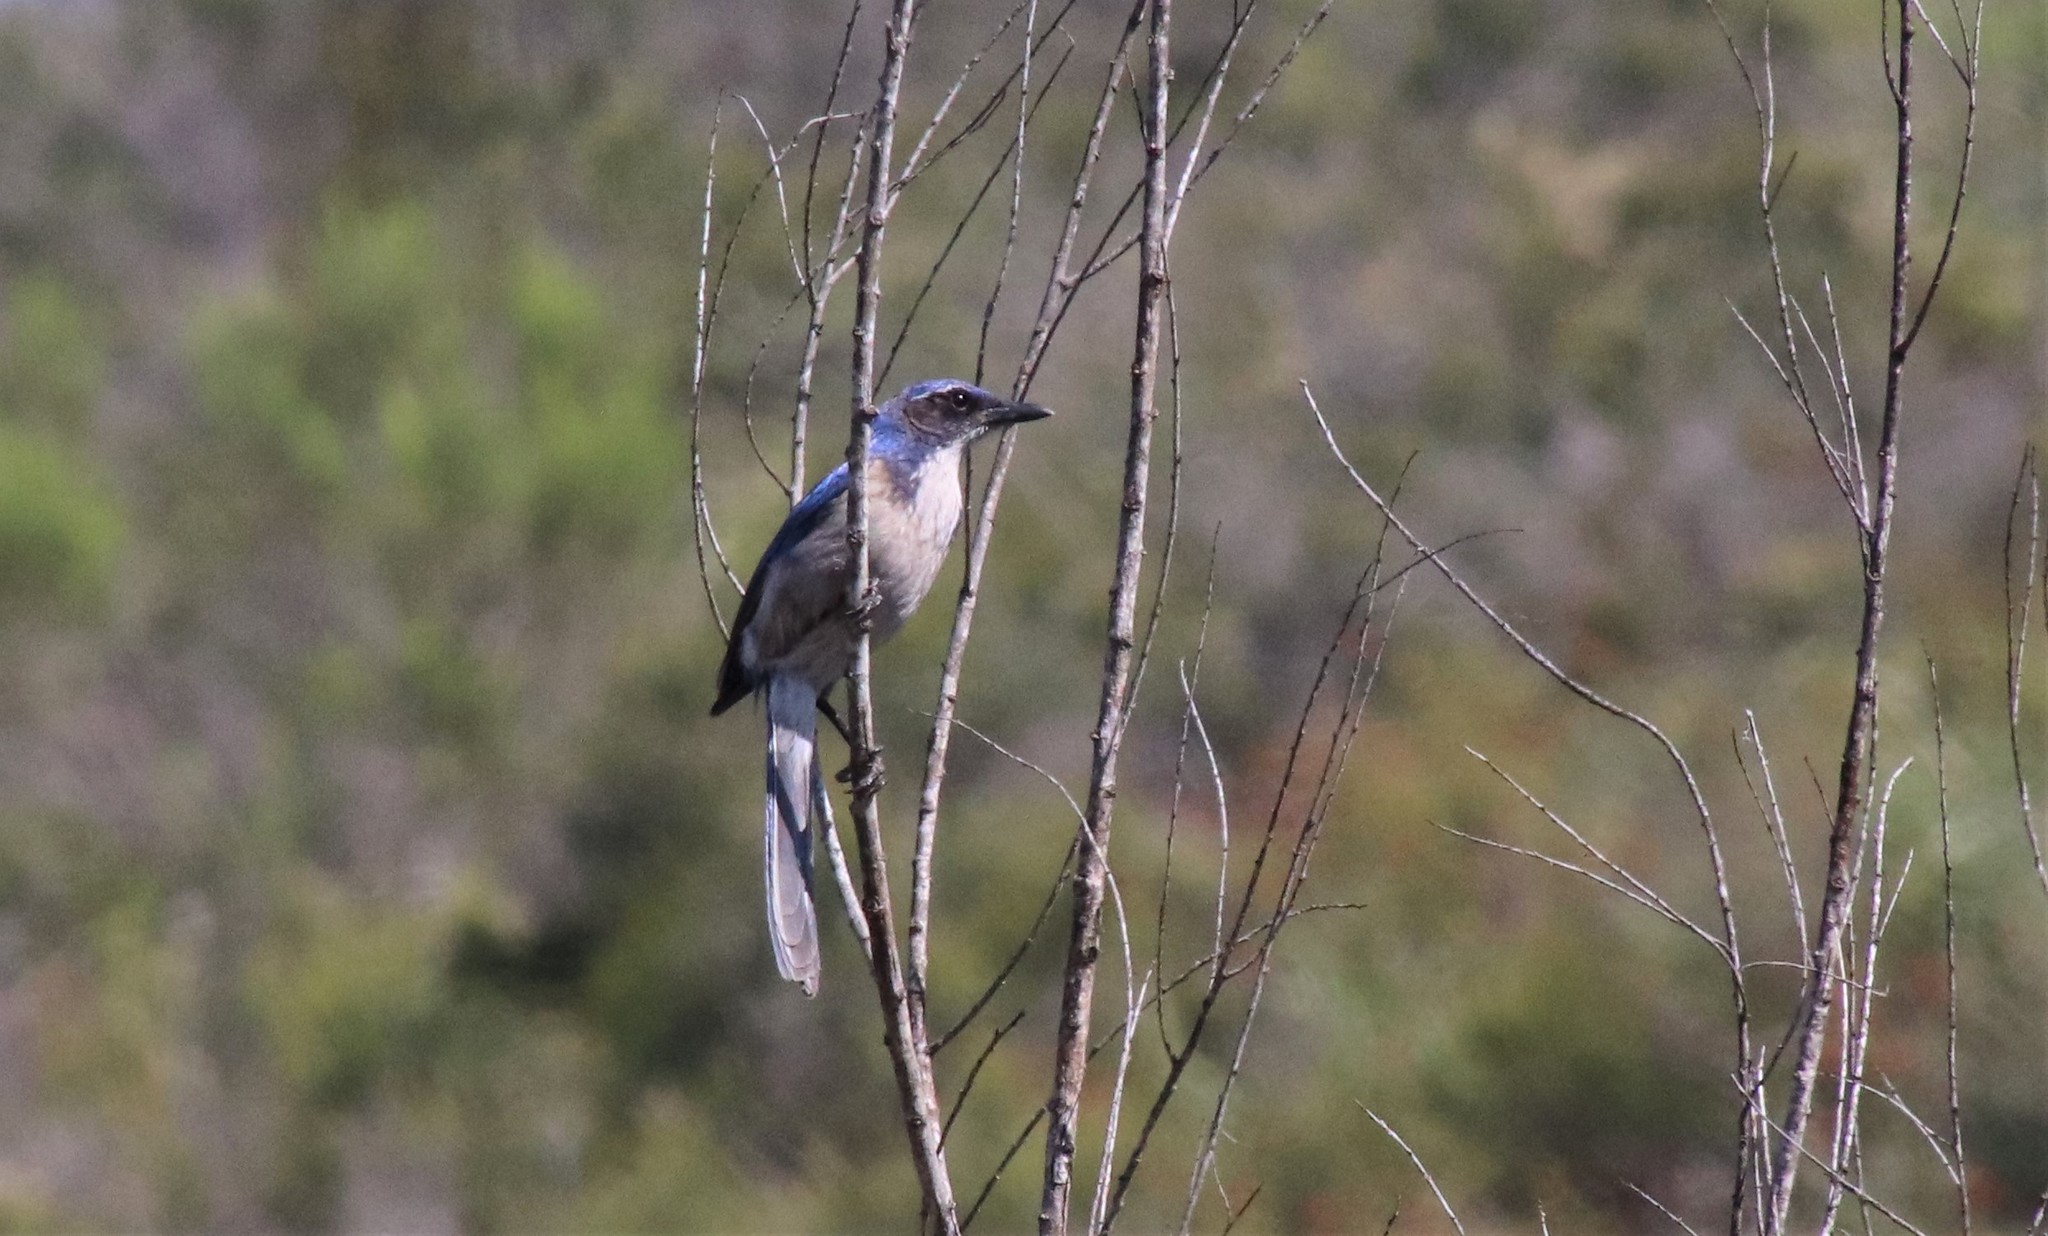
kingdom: Animalia
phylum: Chordata
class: Aves
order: Passeriformes
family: Corvidae
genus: Aphelocoma
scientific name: Aphelocoma californica
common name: California scrub-jay
